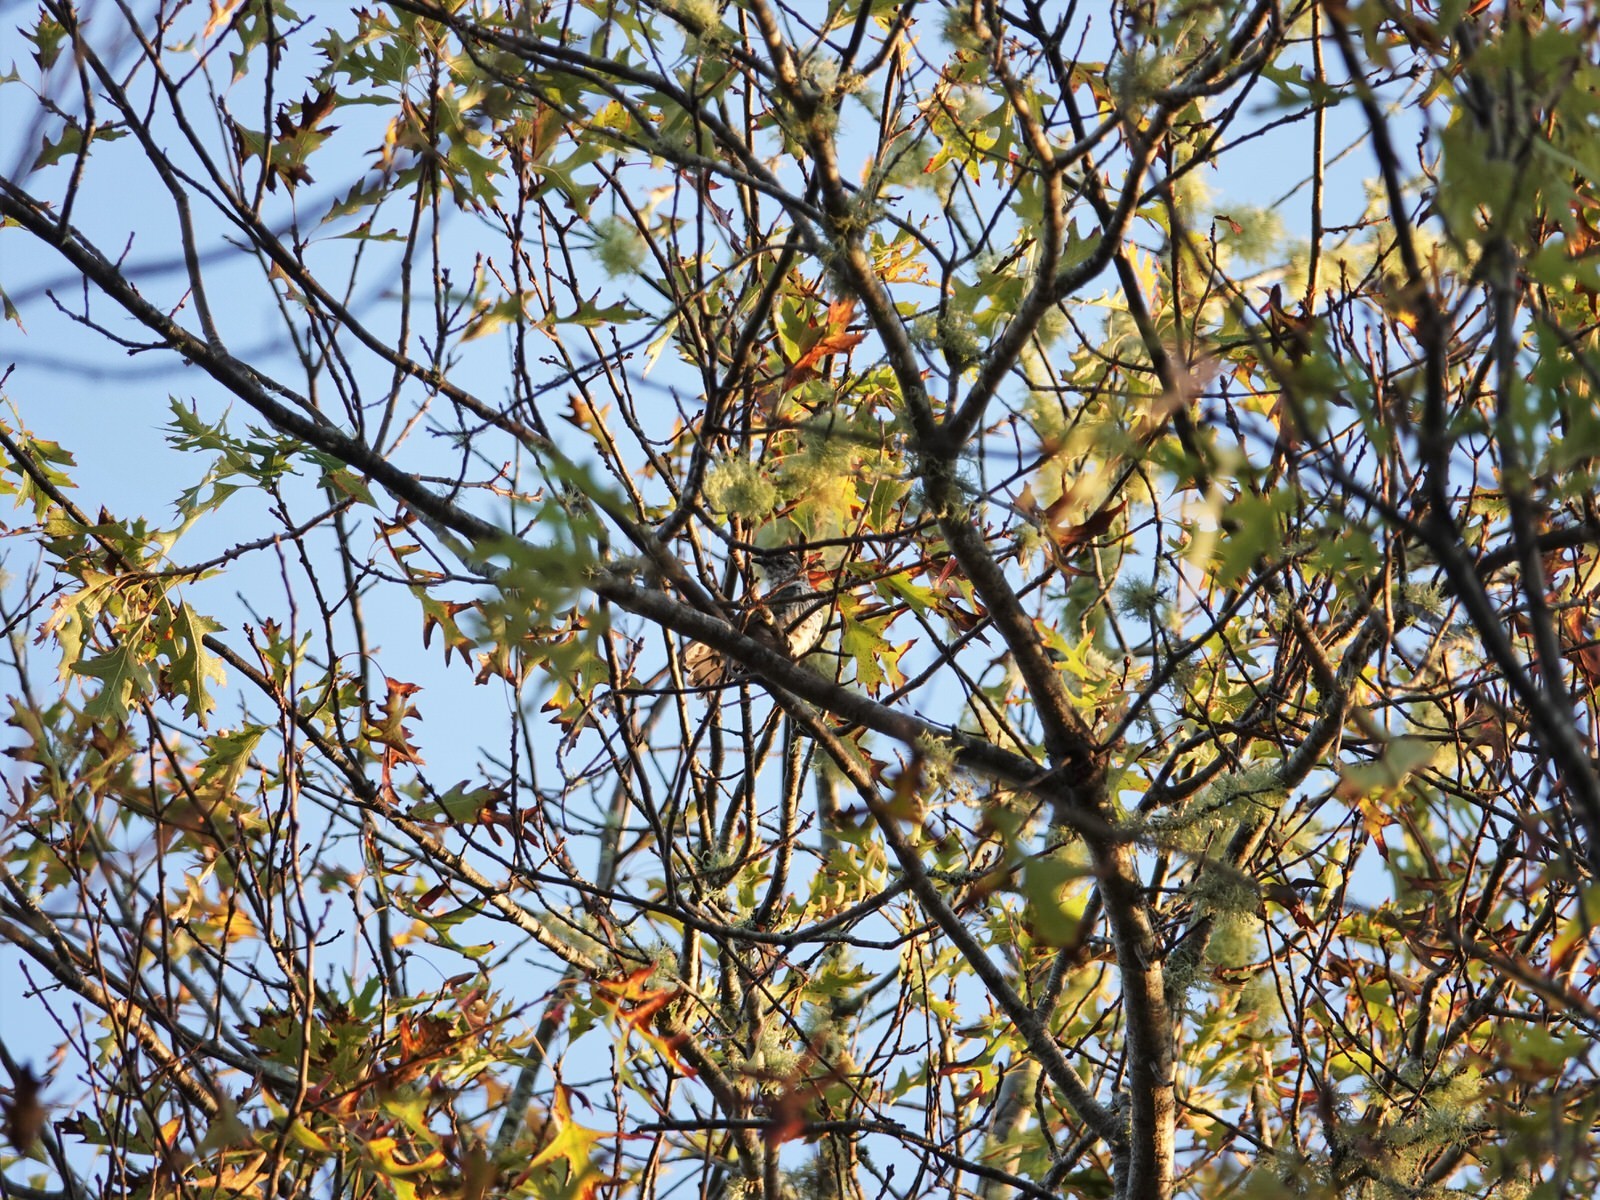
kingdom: Animalia
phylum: Chordata
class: Aves
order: Cuculiformes
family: Cuculidae
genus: Chrysococcyx
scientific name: Chrysococcyx lucidus
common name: Shining bronze cuckoo
